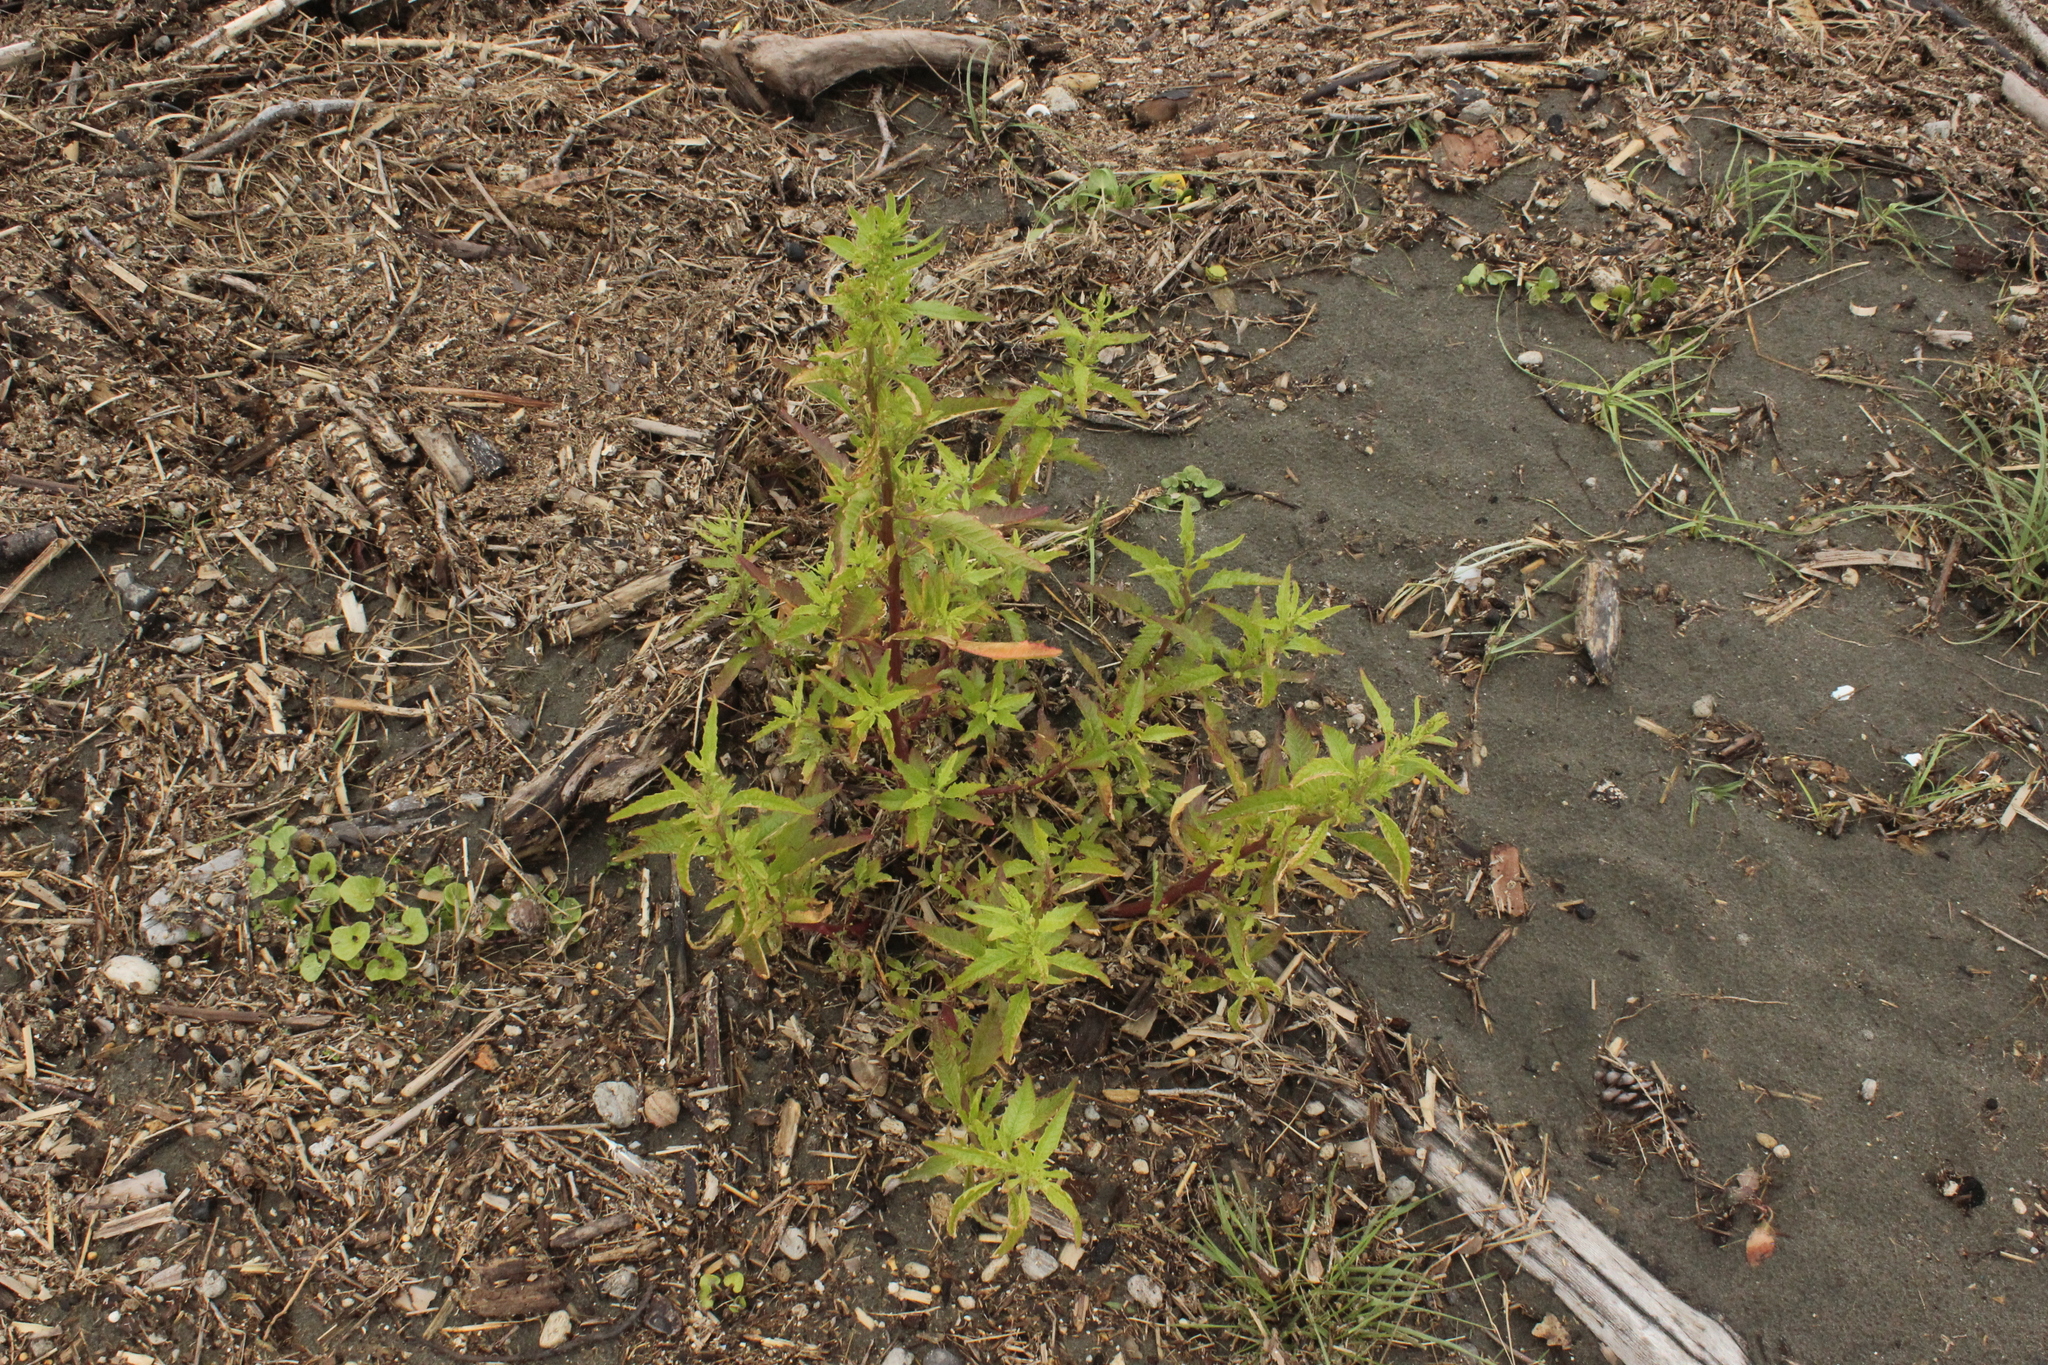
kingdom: Plantae
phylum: Tracheophyta
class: Magnoliopsida
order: Caryophyllales
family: Amaranthaceae
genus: Dysphania
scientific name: Dysphania ambrosioides
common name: Wormseed
